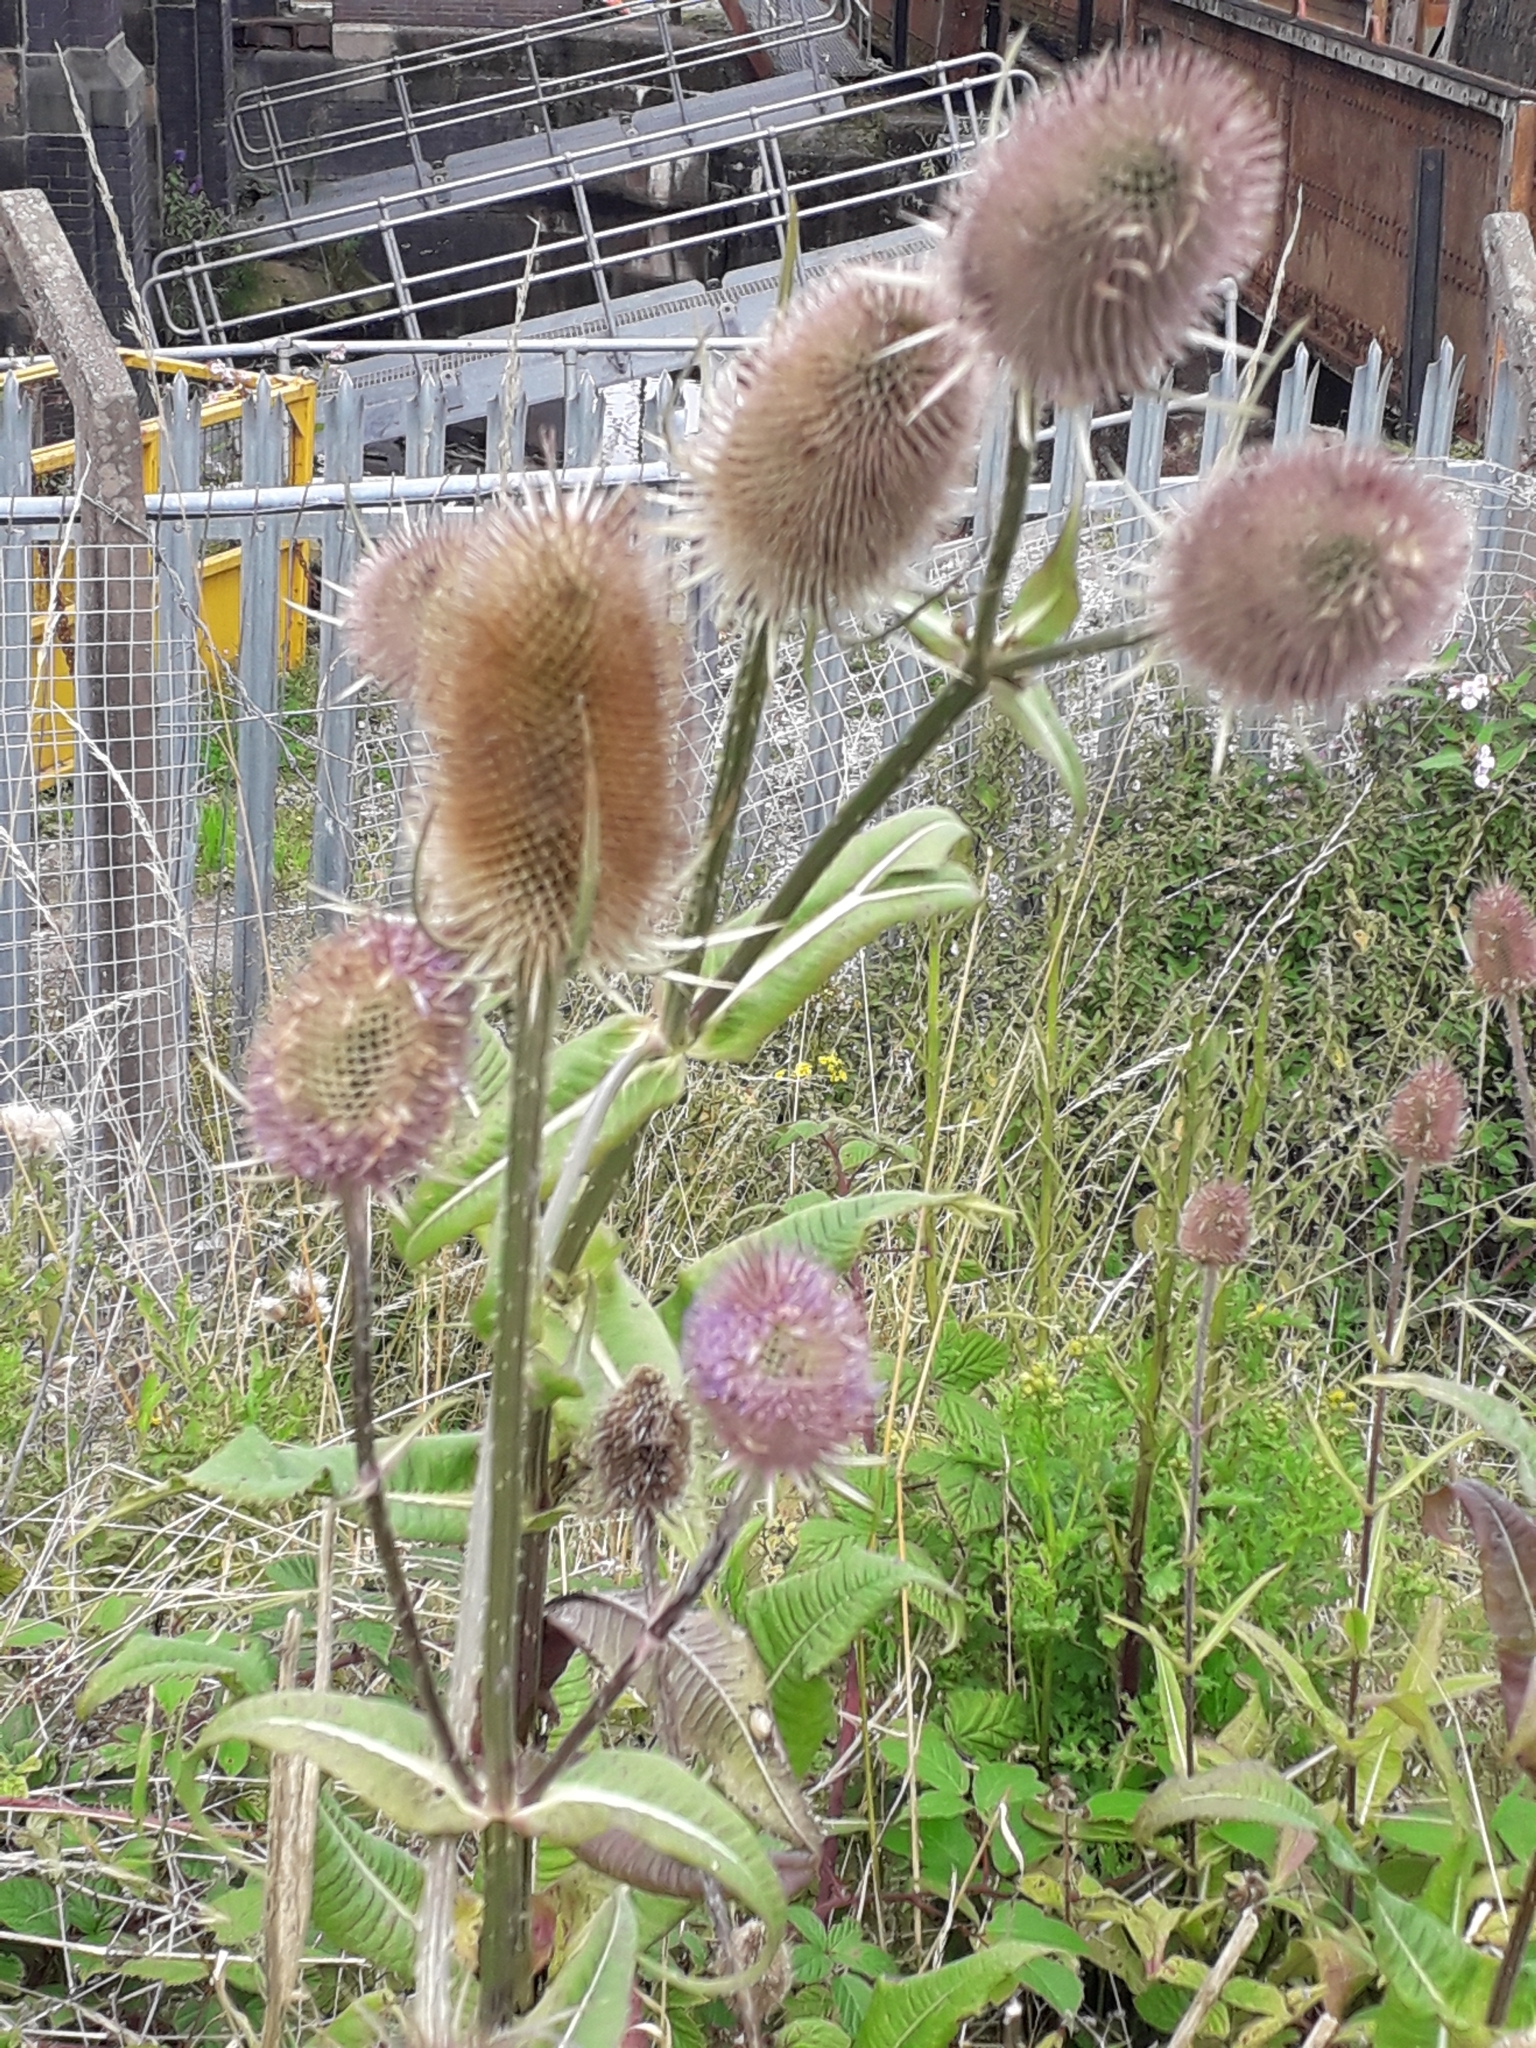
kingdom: Plantae
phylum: Tracheophyta
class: Magnoliopsida
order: Dipsacales
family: Caprifoliaceae
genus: Dipsacus
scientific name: Dipsacus fullonum
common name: Teasel
